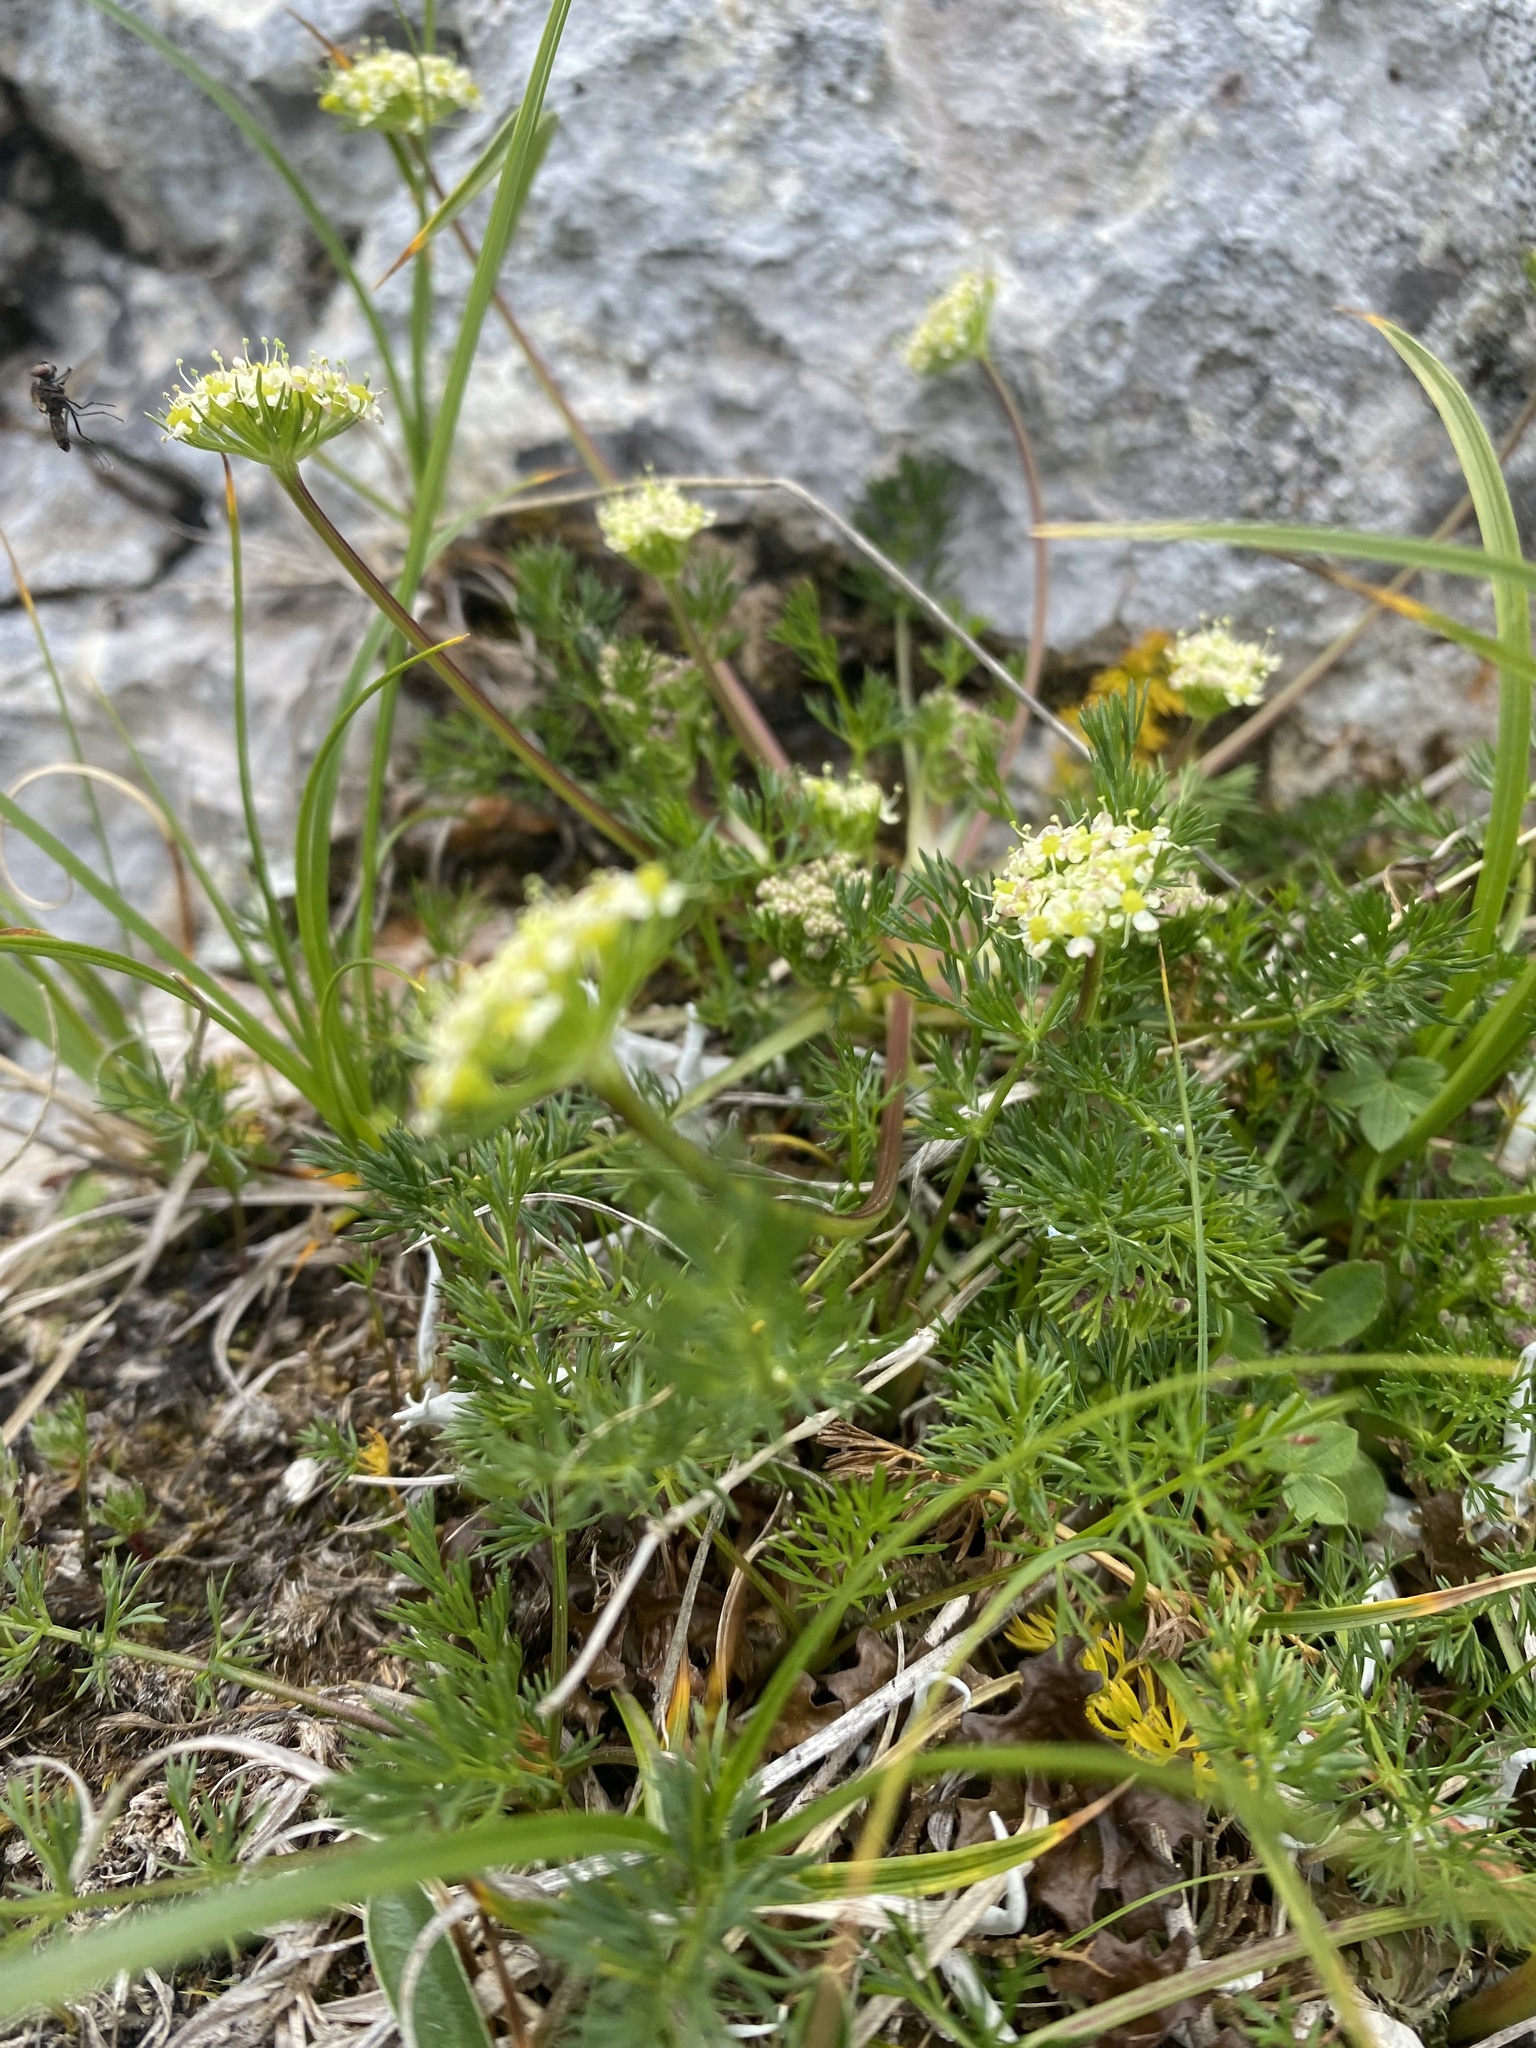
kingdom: Plantae
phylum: Tracheophyta
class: Magnoliopsida
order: Apiales
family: Apiaceae
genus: Chamaesciadium
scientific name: Chamaesciadium acaule
